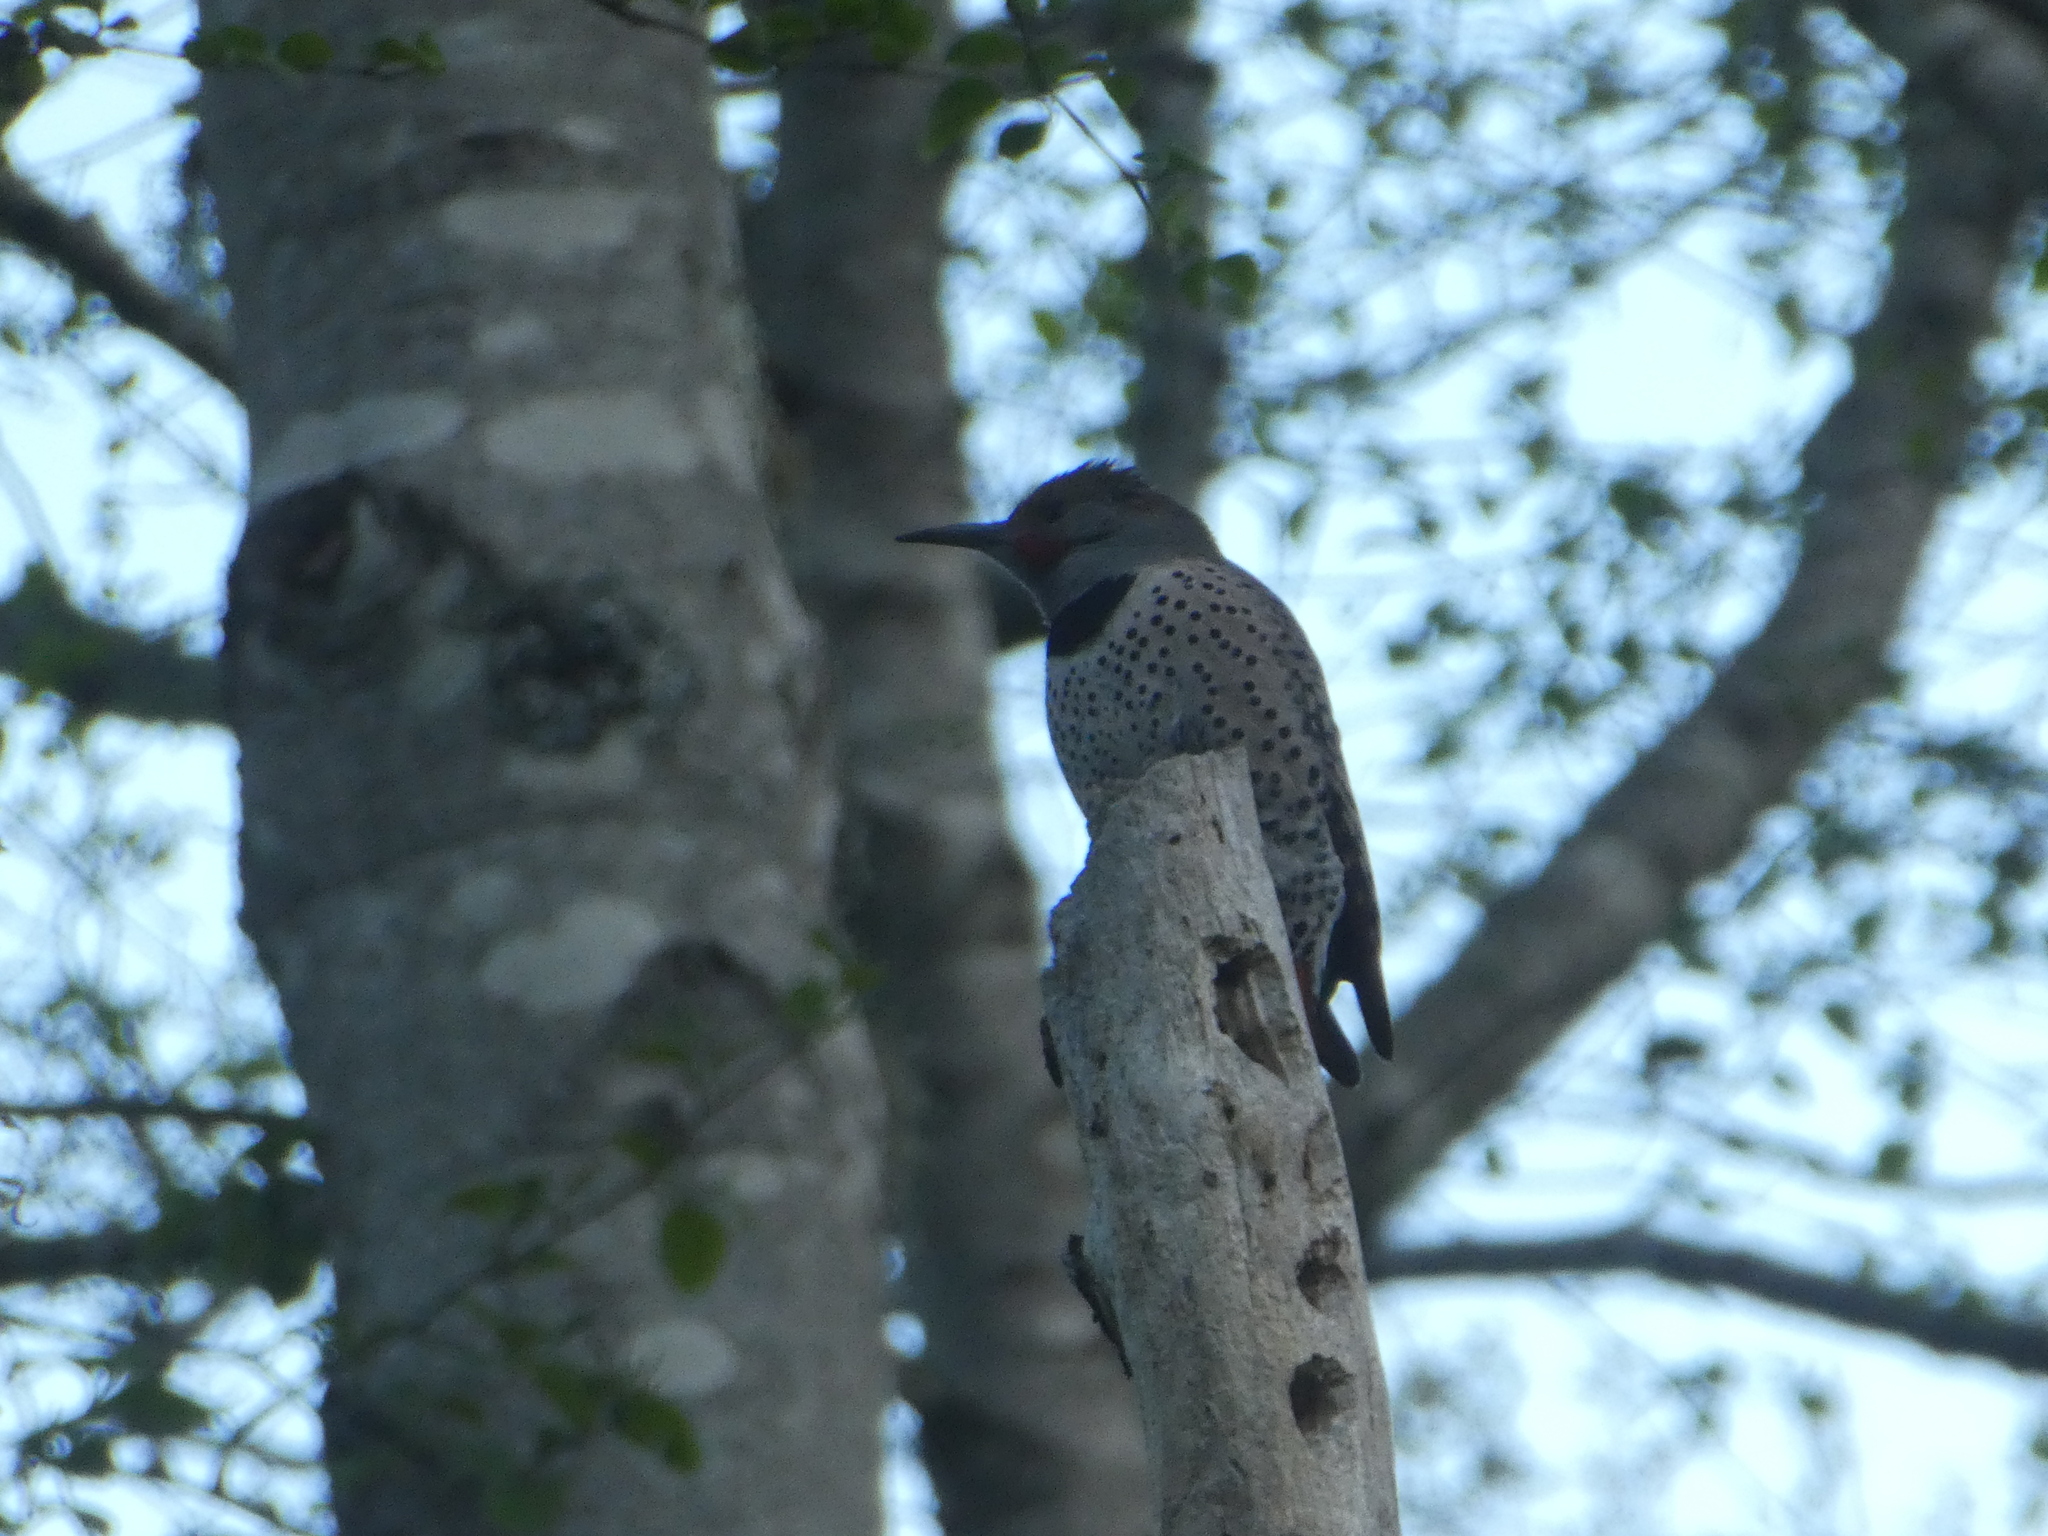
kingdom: Animalia
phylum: Chordata
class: Aves
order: Piciformes
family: Picidae
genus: Colaptes
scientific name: Colaptes auratus
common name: Northern flicker
